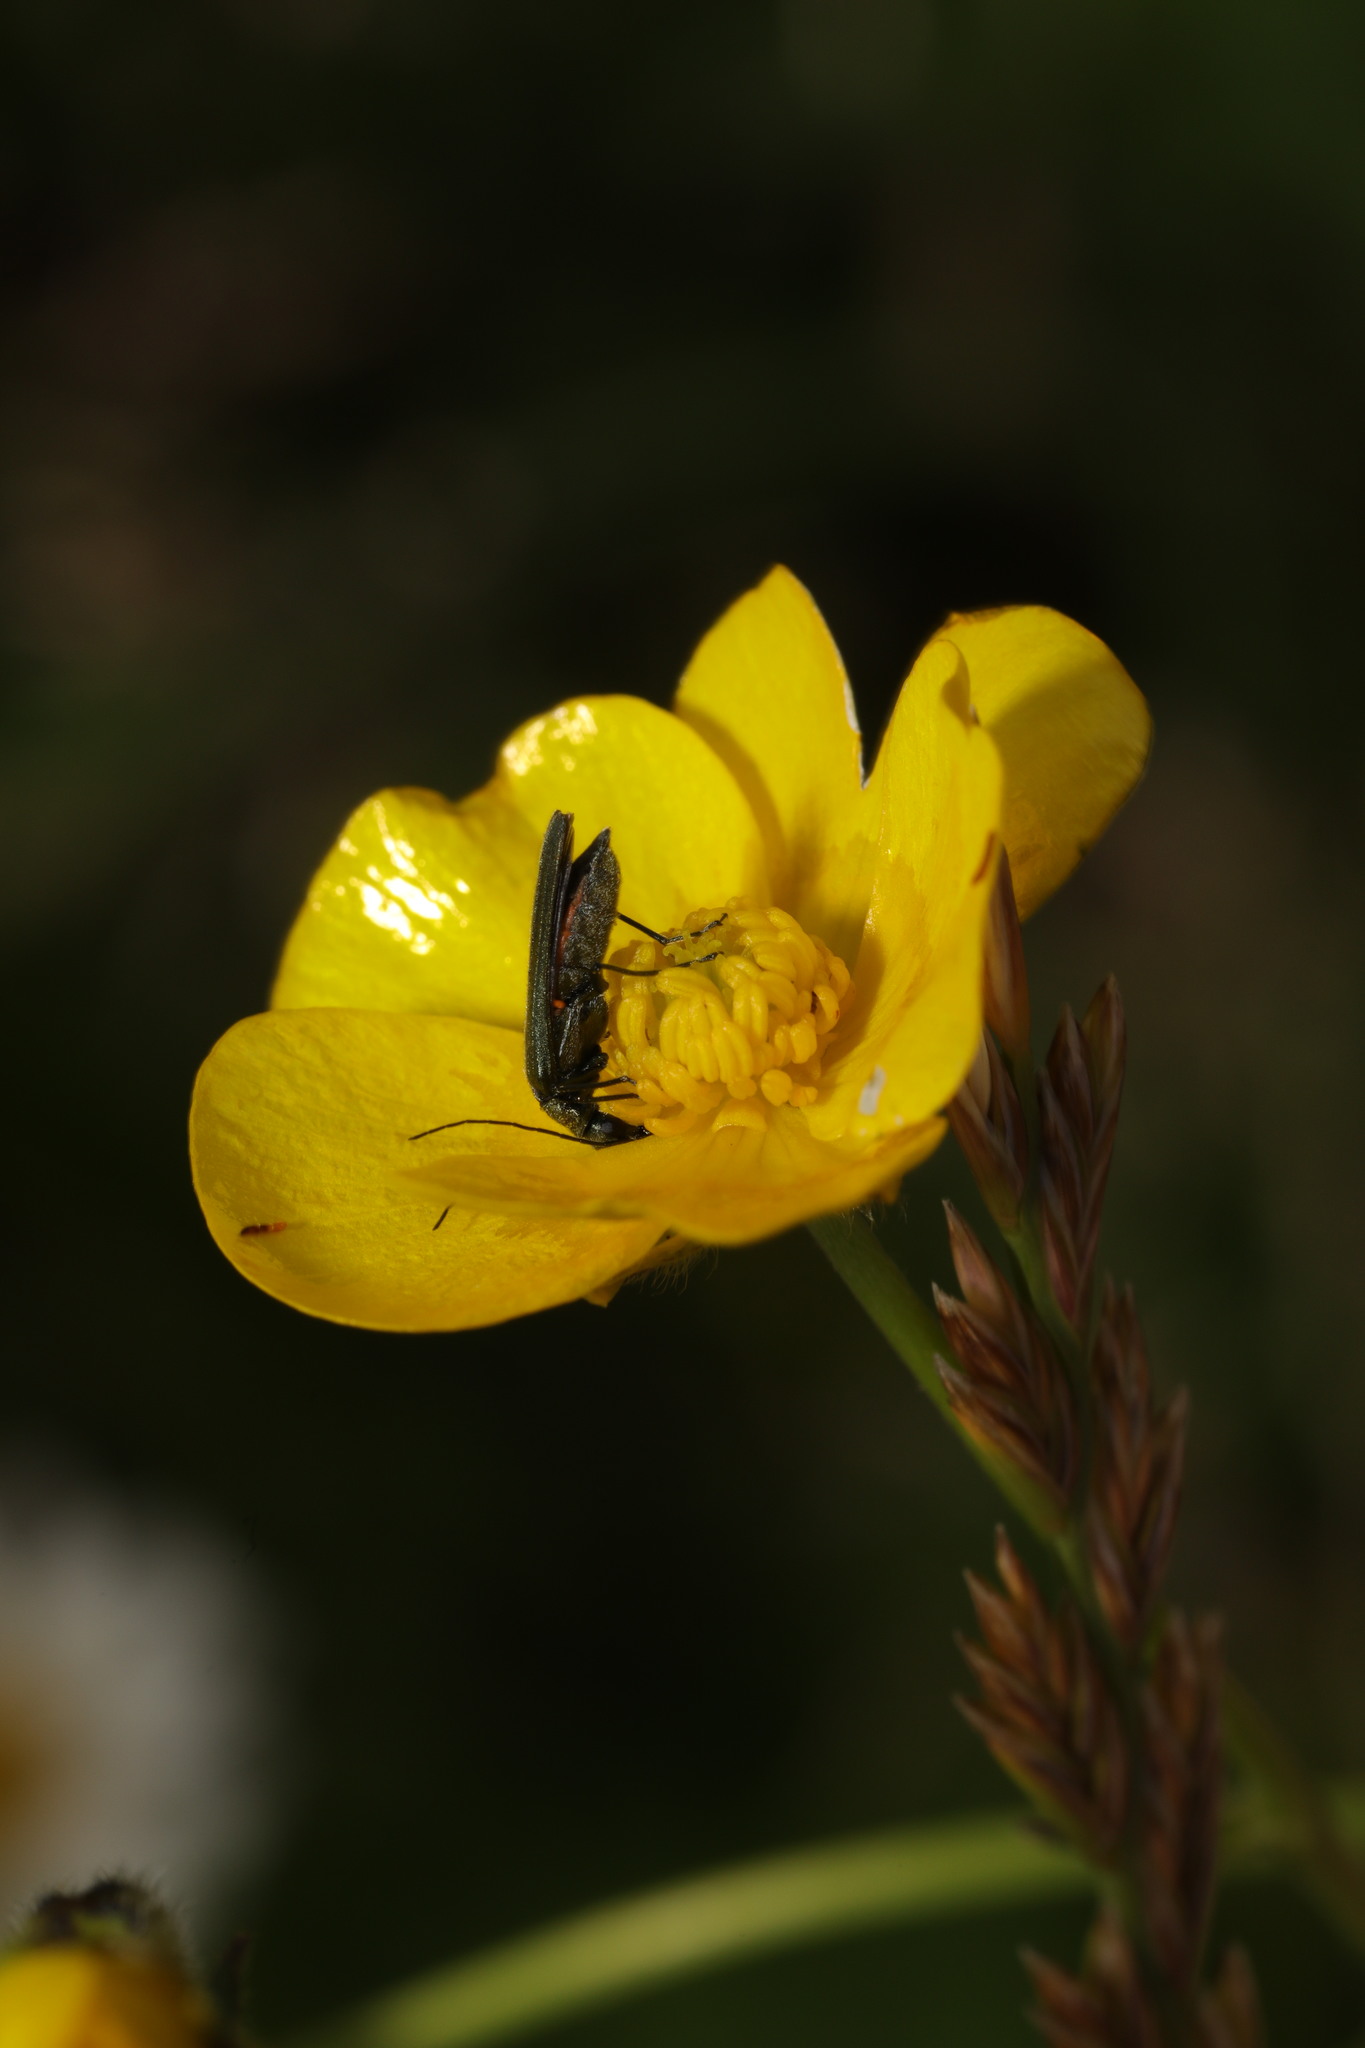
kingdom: Animalia
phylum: Arthropoda
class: Insecta
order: Coleoptera
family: Oedemeridae
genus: Oedemera
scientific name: Oedemera lurida
